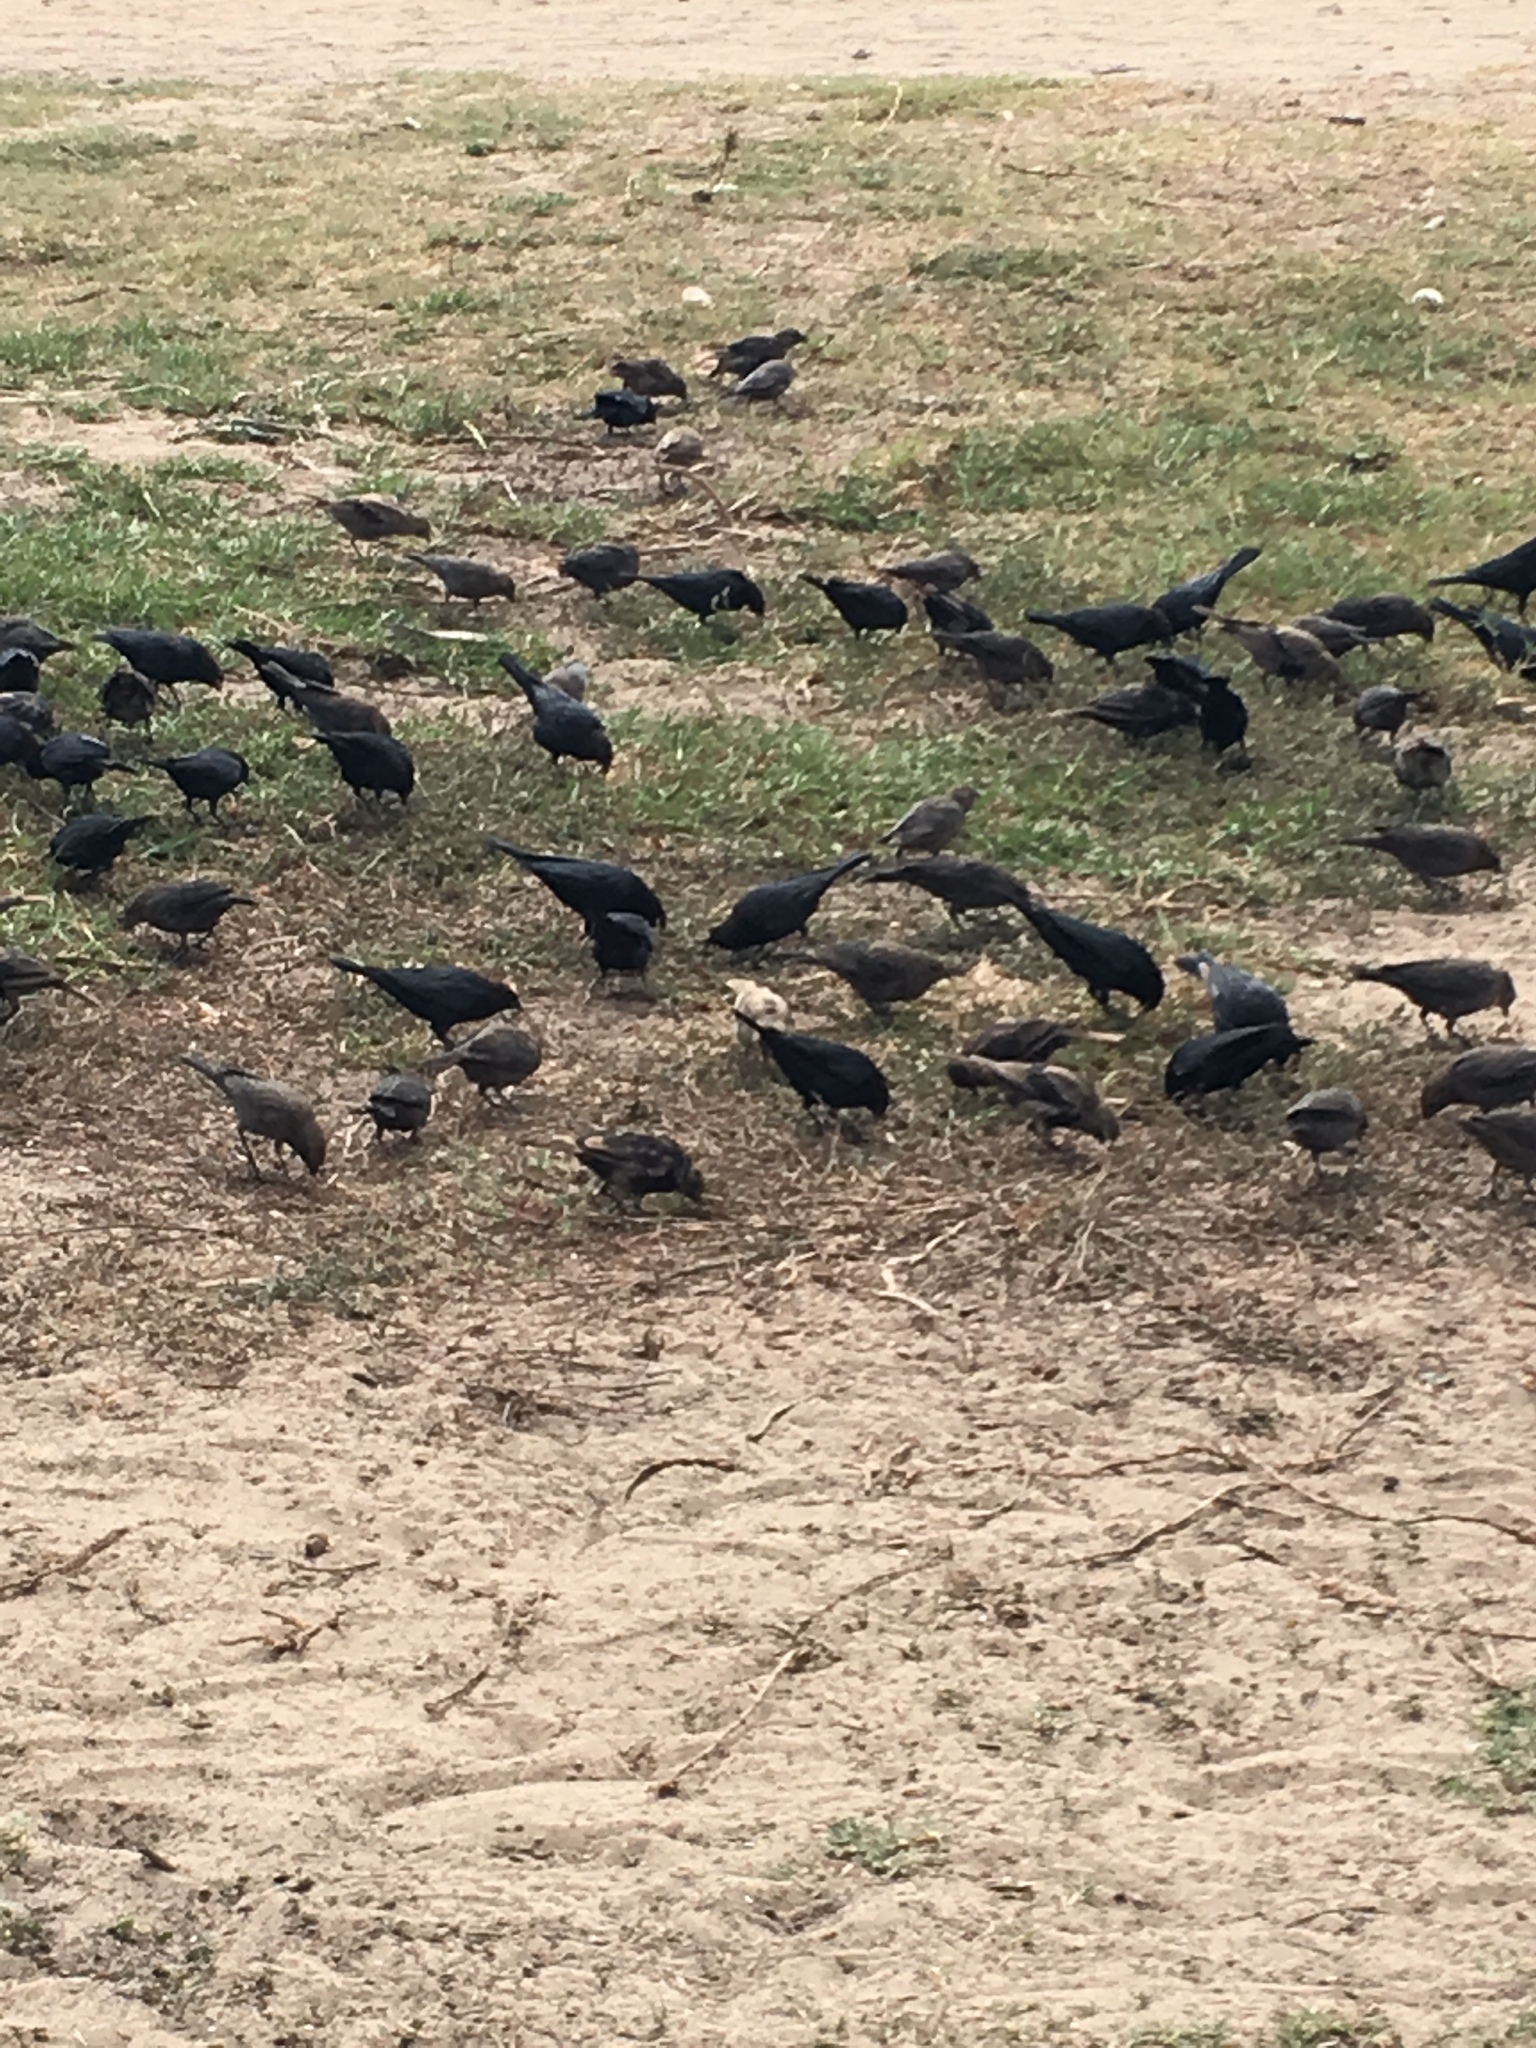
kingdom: Animalia
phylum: Chordata
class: Aves
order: Passeriformes
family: Icteridae
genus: Molothrus
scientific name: Molothrus ater
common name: Brown-headed cowbird
